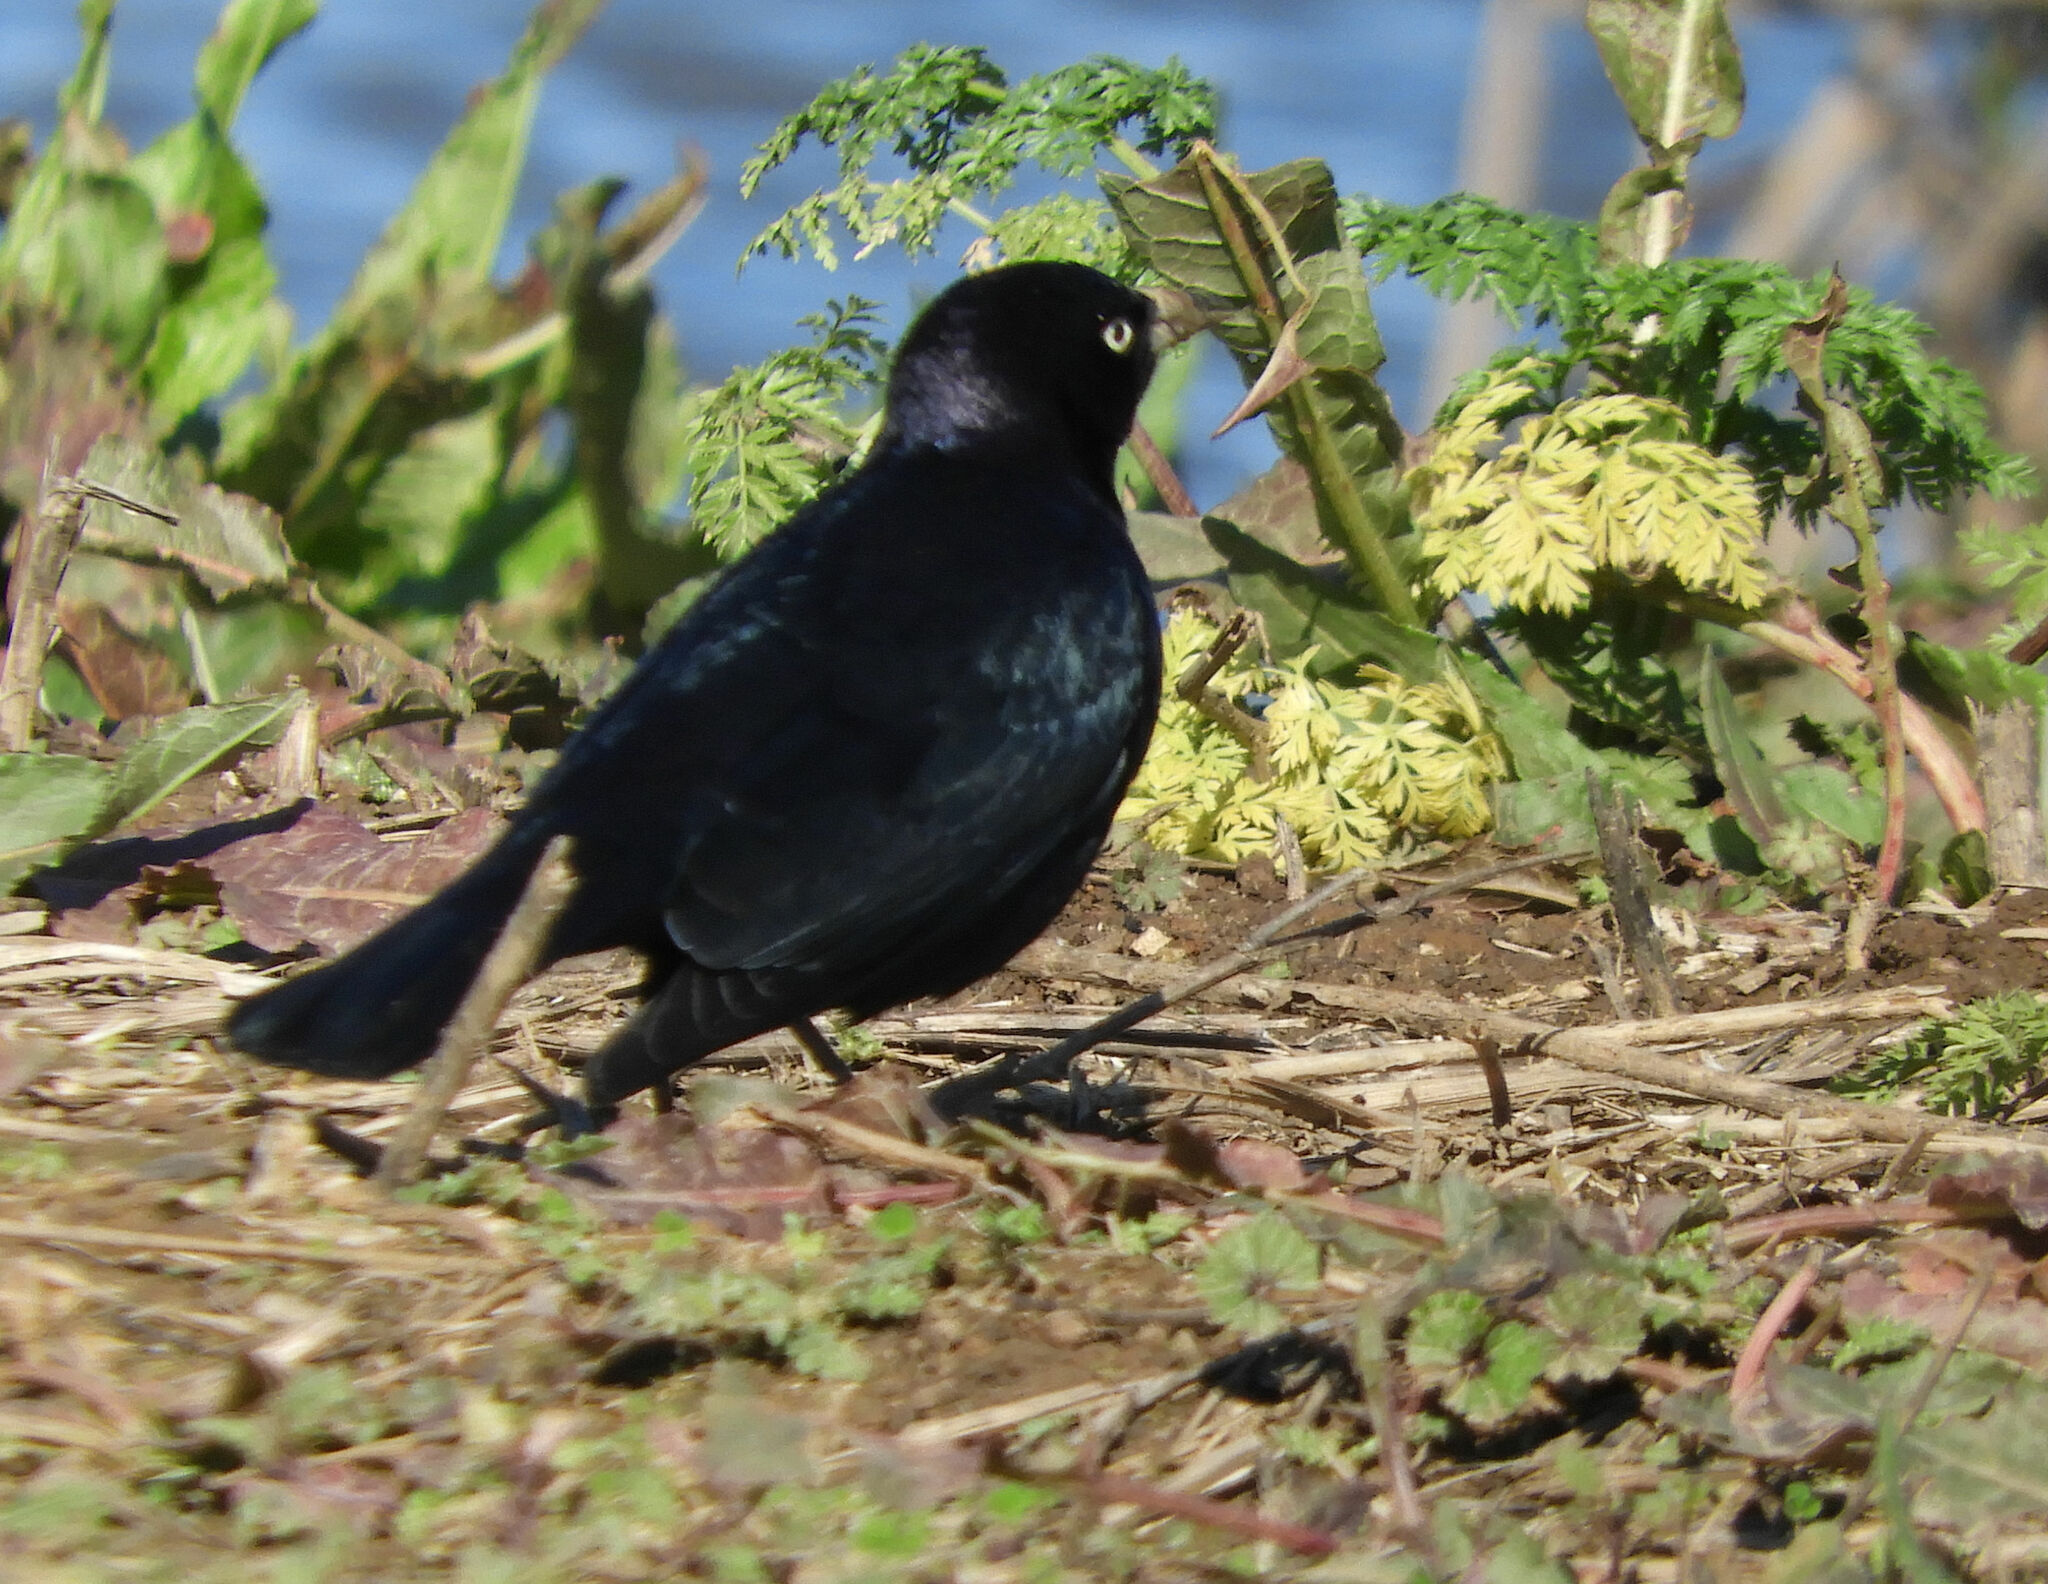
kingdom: Animalia
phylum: Chordata
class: Aves
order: Passeriformes
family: Icteridae
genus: Euphagus
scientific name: Euphagus cyanocephalus
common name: Brewer's blackbird
